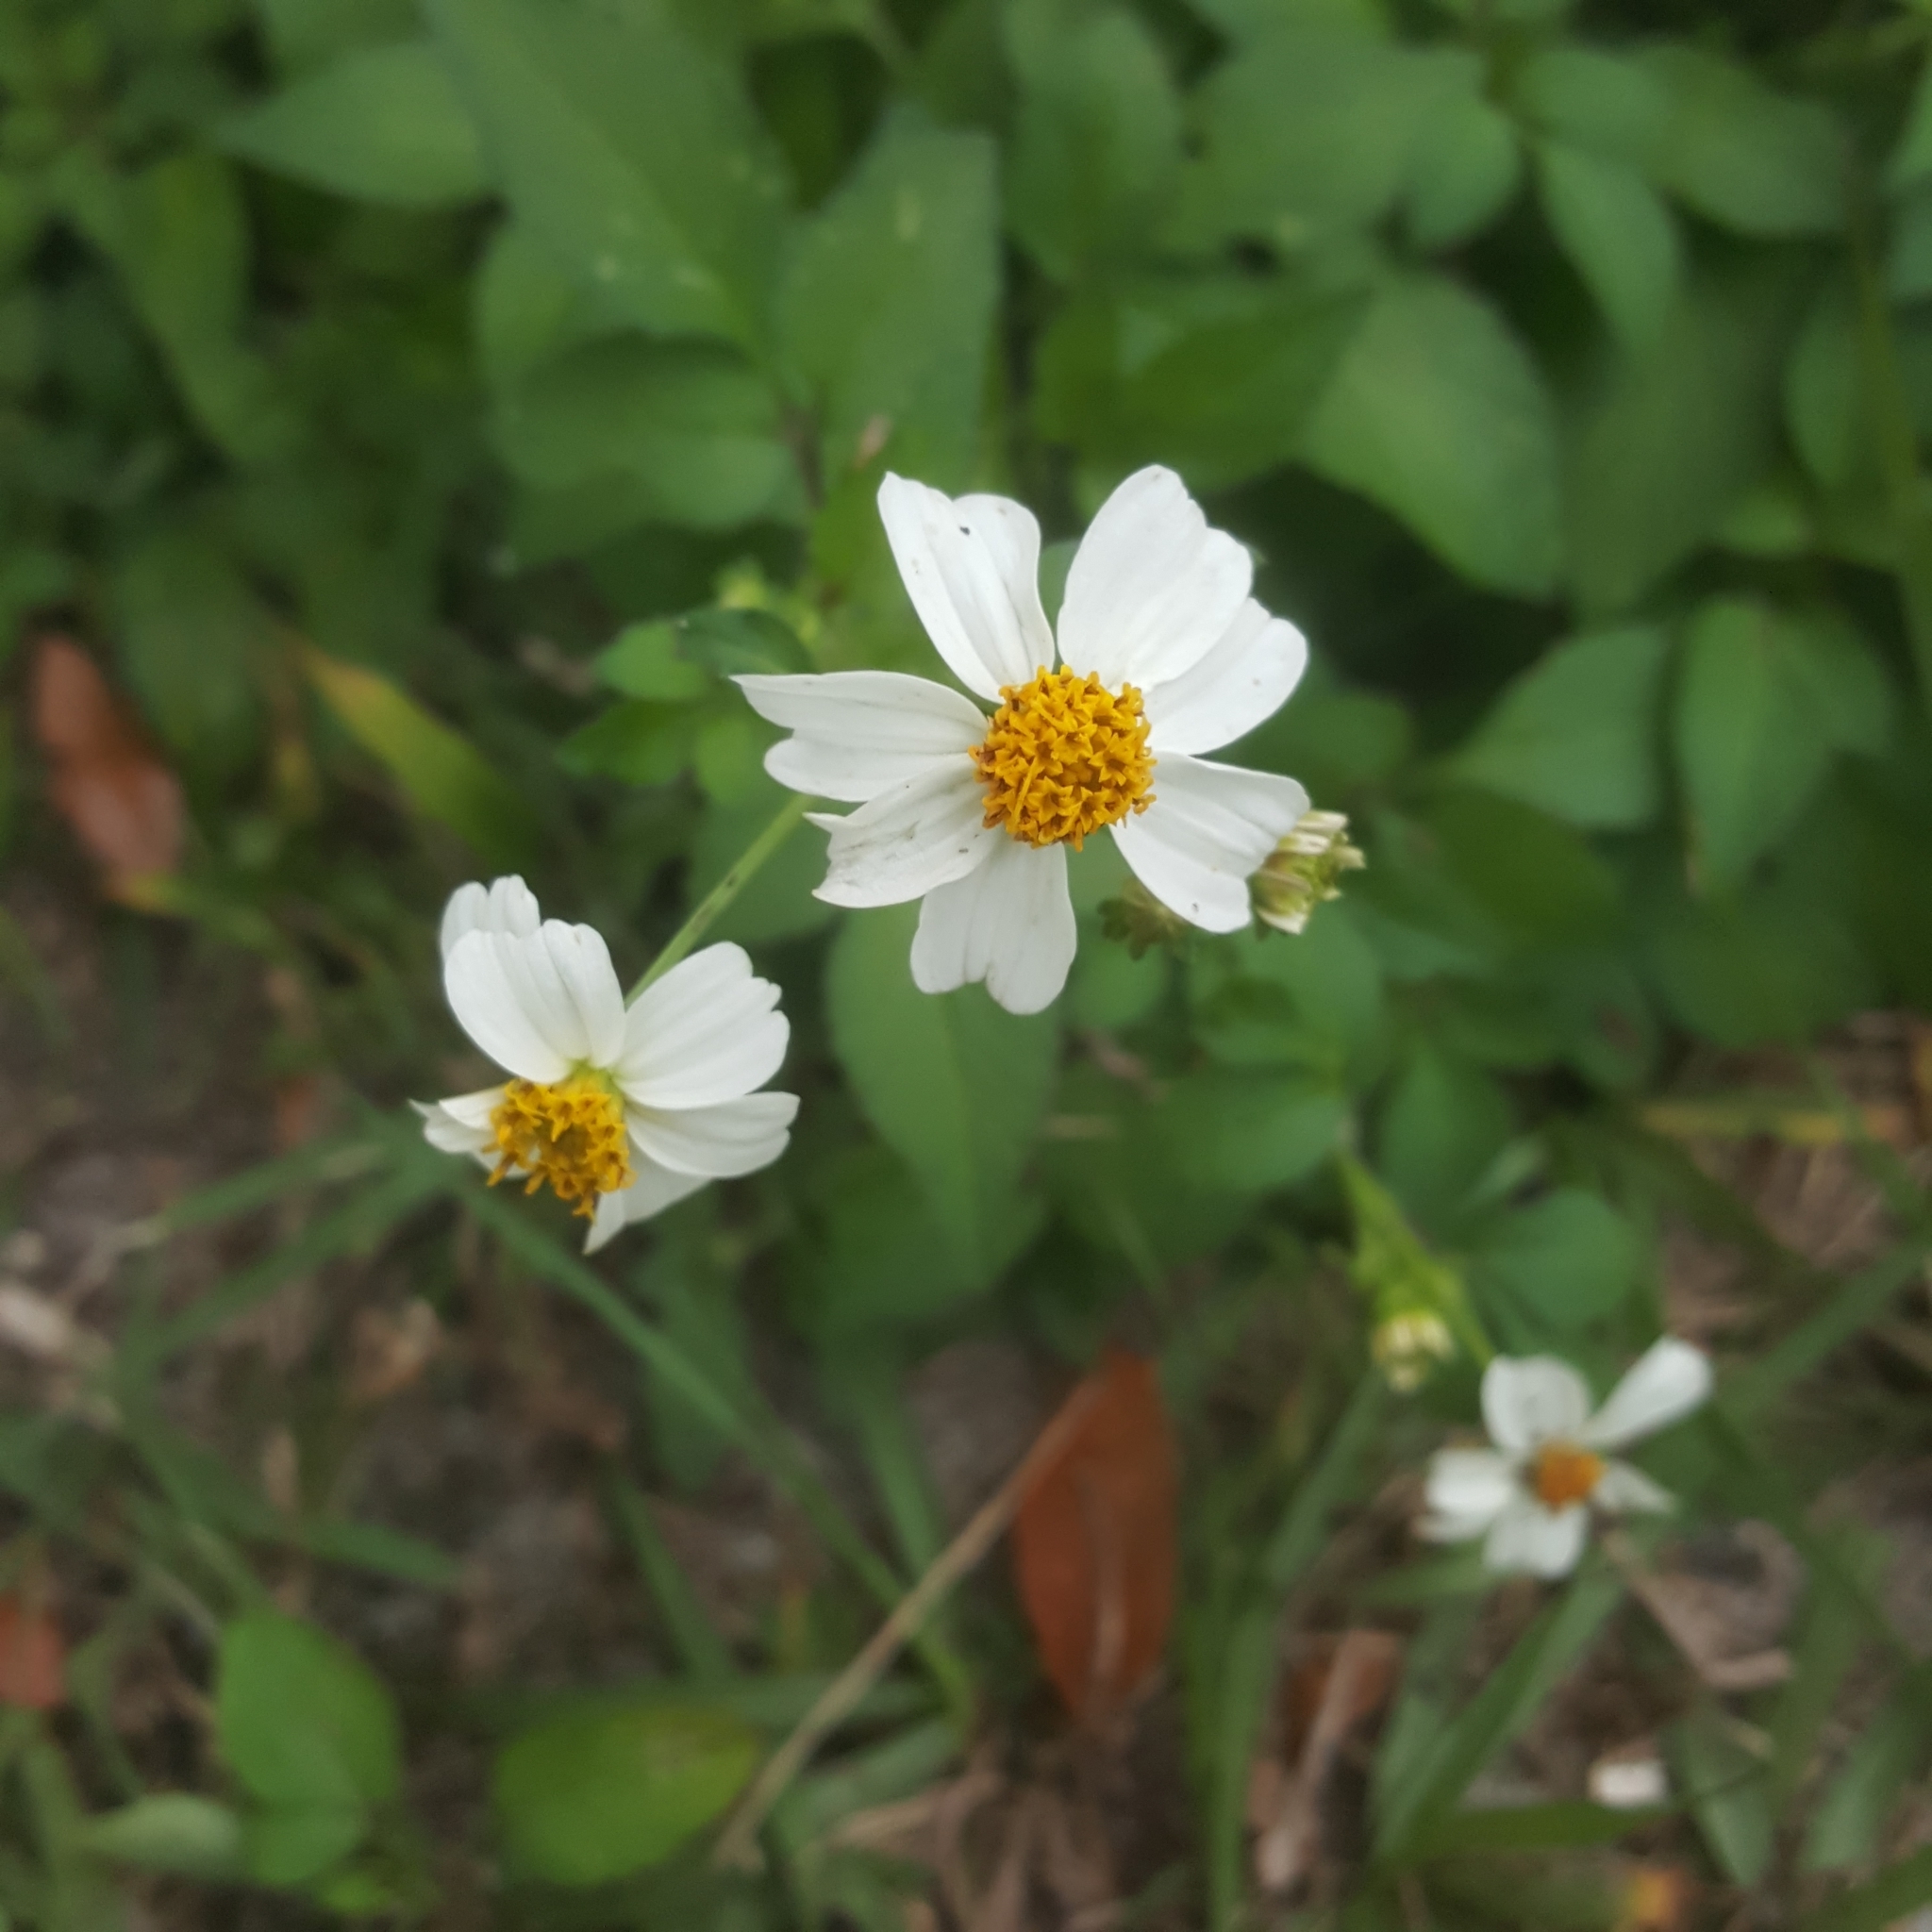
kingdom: Plantae
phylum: Tracheophyta
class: Magnoliopsida
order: Asterales
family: Asteraceae
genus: Bidens
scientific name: Bidens alba
